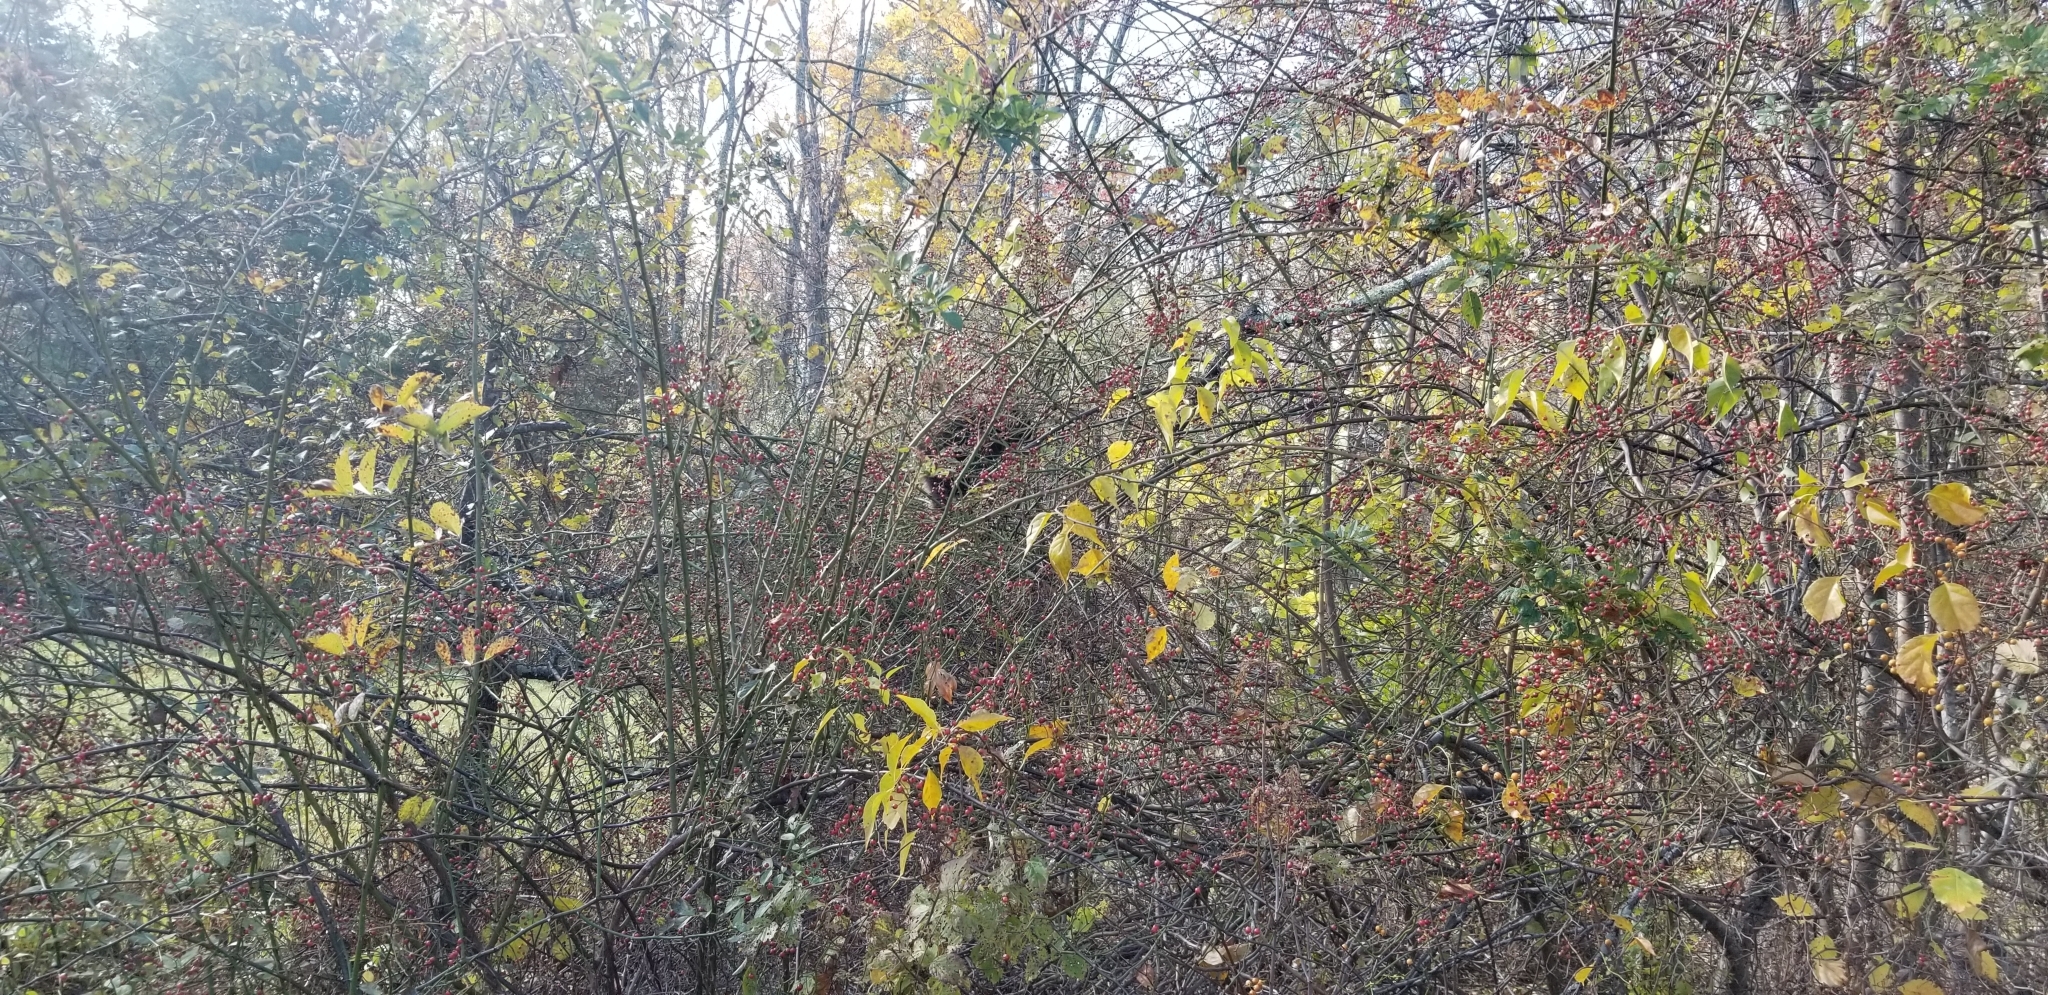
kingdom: Animalia
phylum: Chordata
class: Mammalia
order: Rodentia
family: Erethizontidae
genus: Erethizon
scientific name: Erethizon dorsatus
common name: North american porcupine
